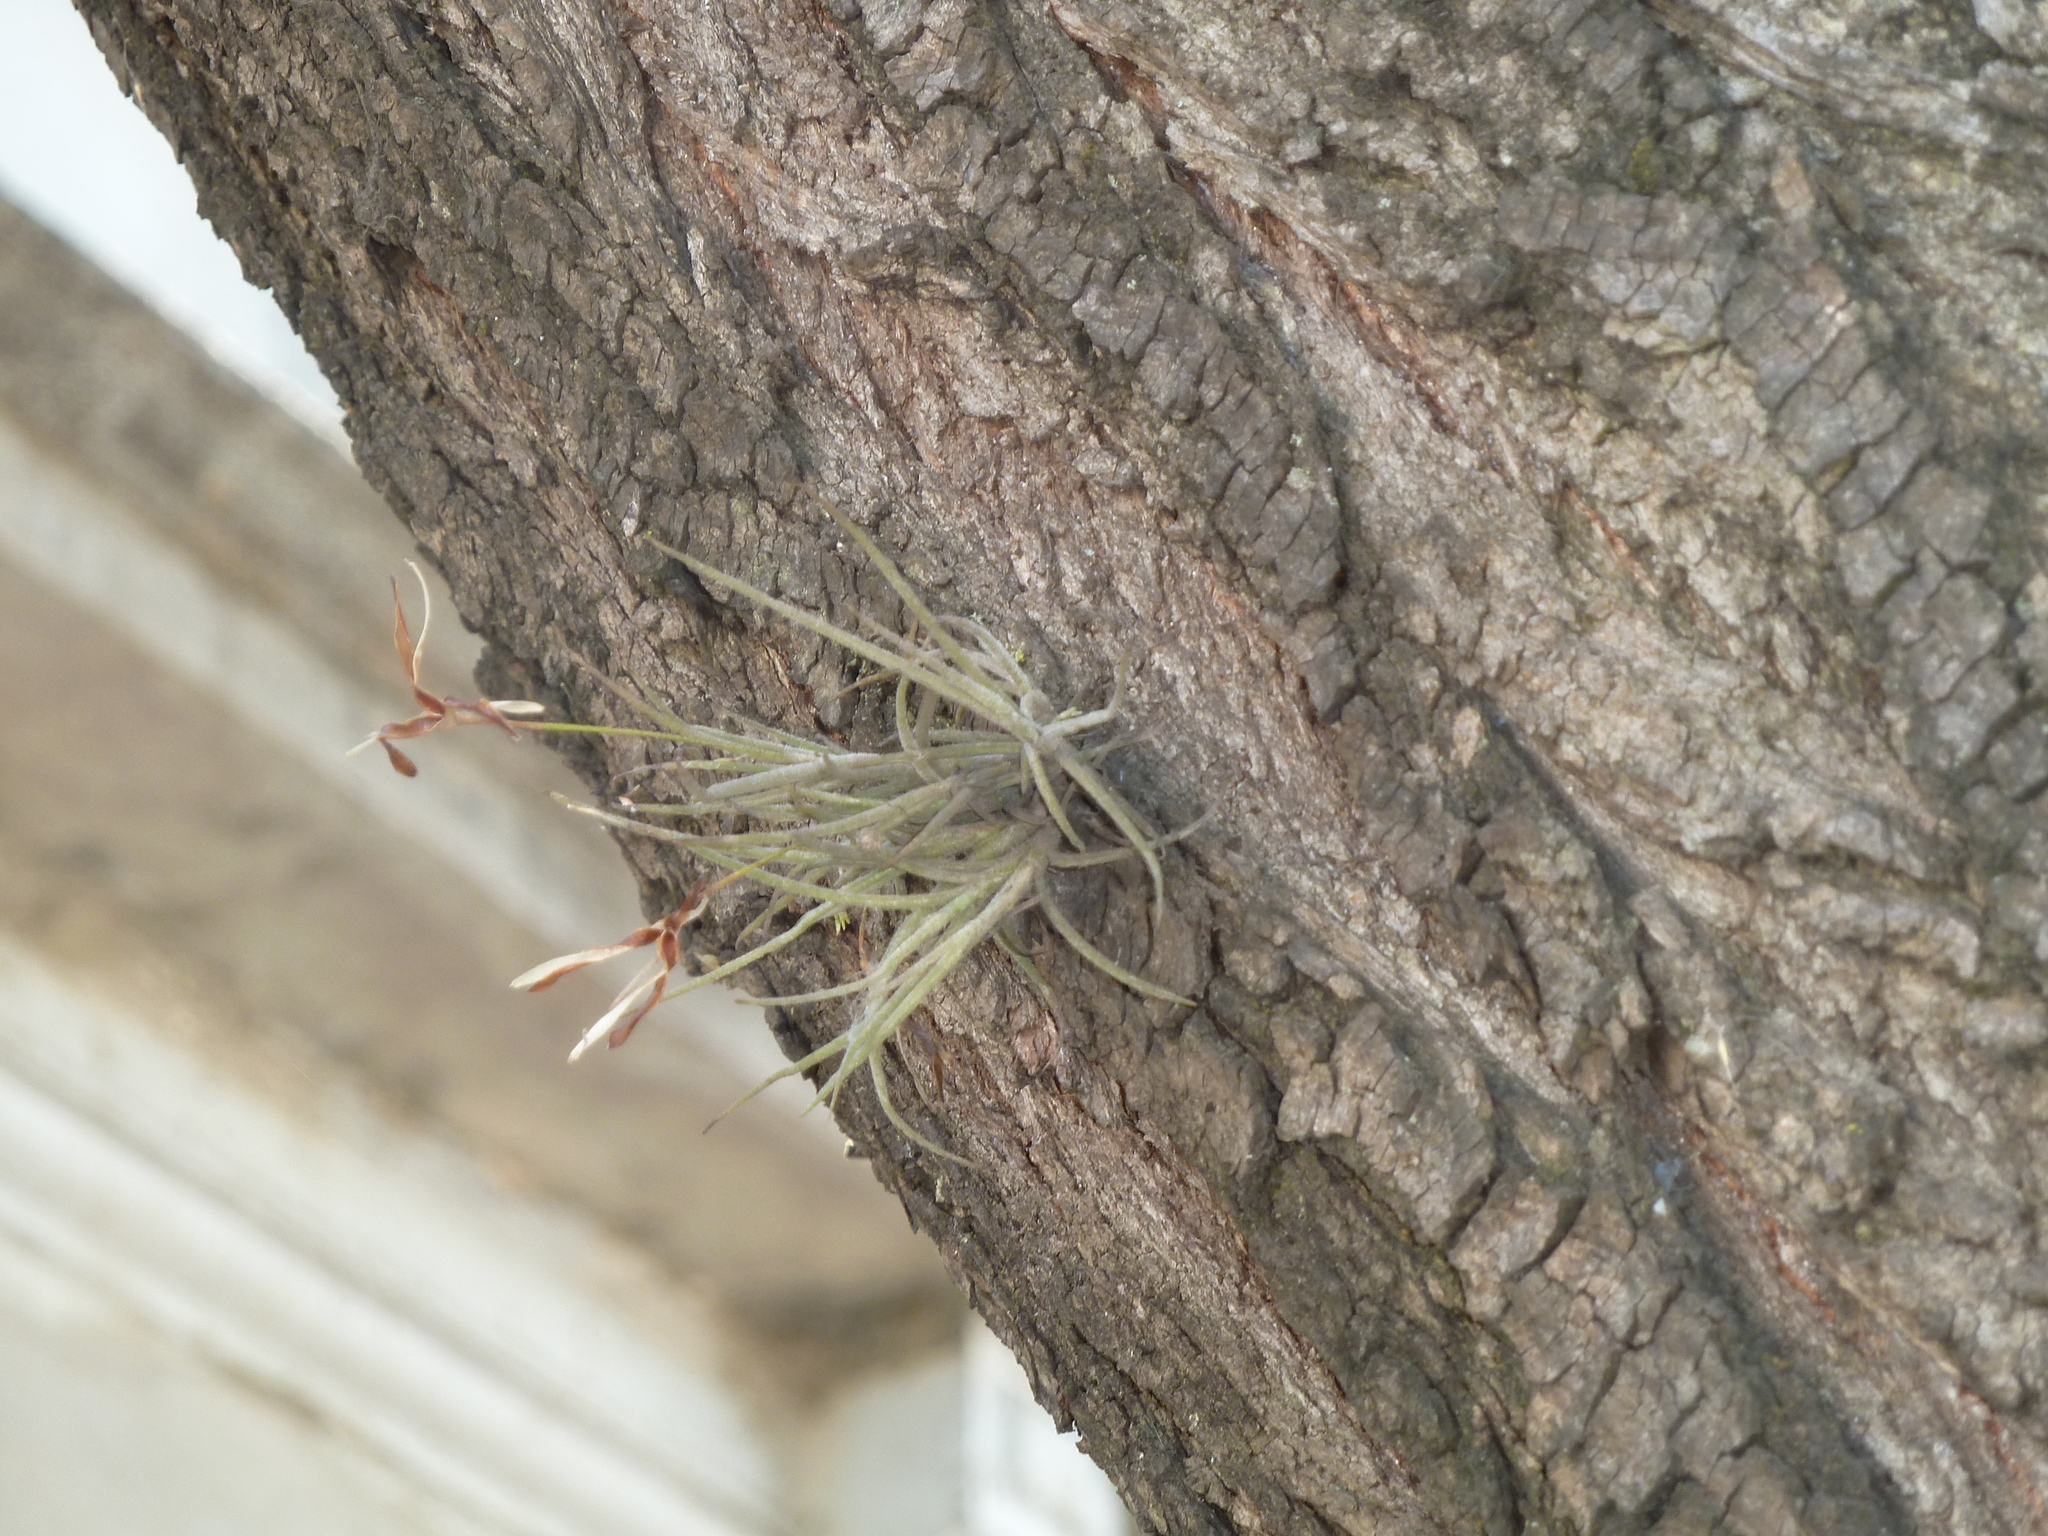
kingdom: Plantae
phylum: Tracheophyta
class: Liliopsida
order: Poales
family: Bromeliaceae
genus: Tillandsia
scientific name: Tillandsia recurvata
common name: Small ballmoss
